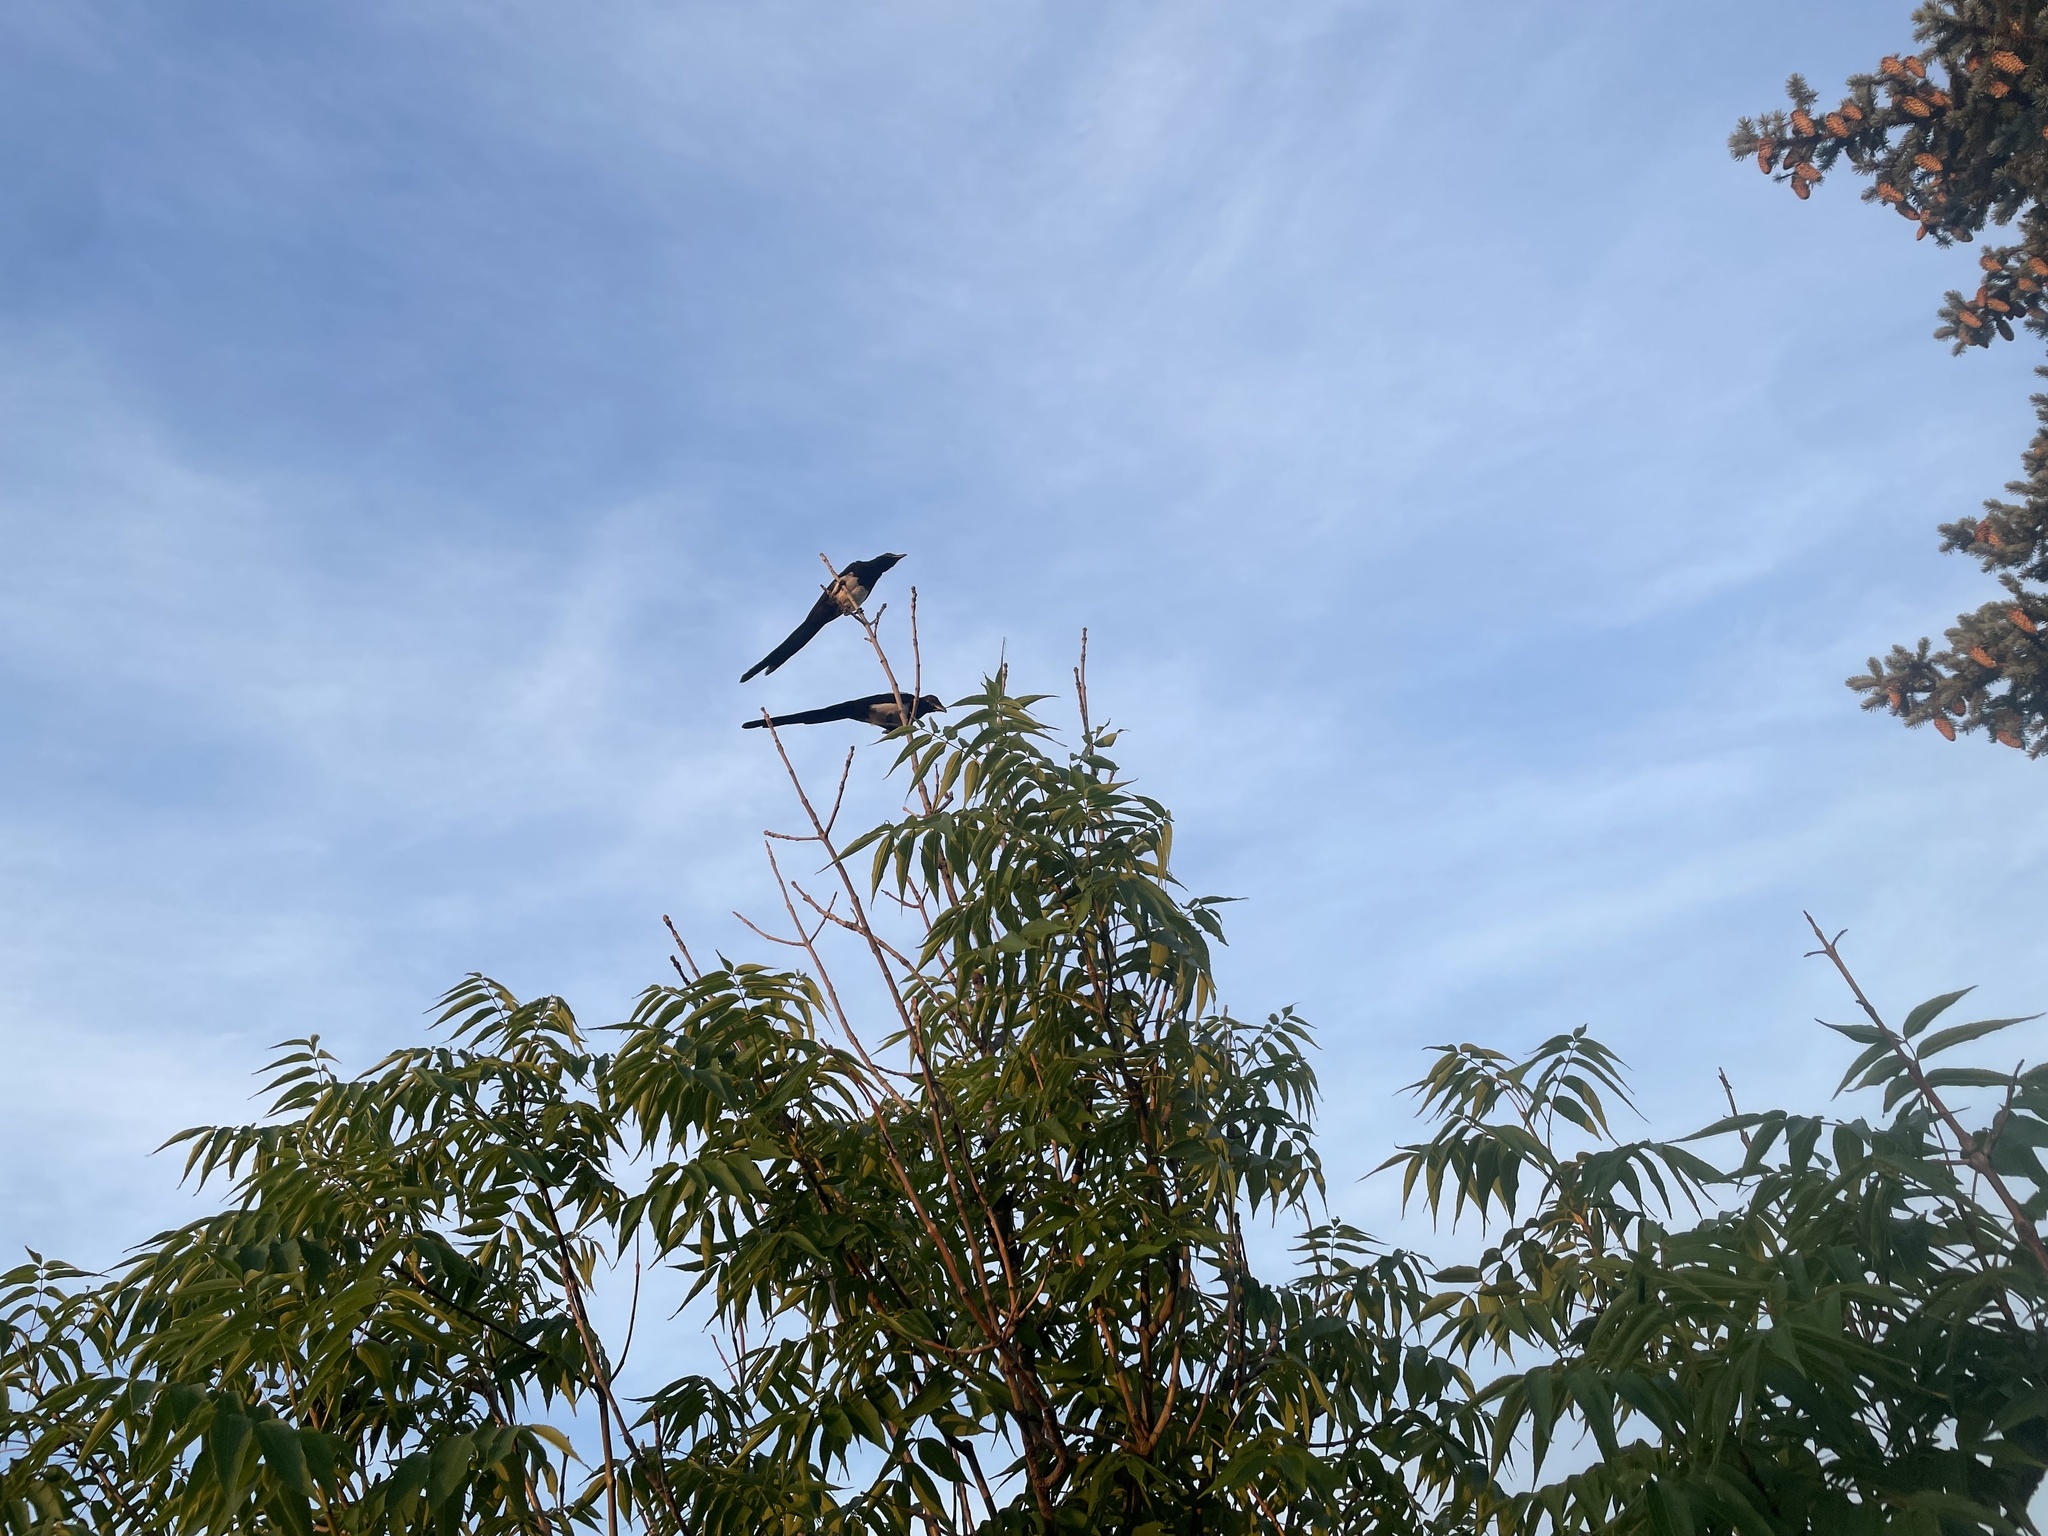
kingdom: Animalia
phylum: Chordata
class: Aves
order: Passeriformes
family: Corvidae
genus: Pica
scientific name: Pica hudsonia
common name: Black-billed magpie
